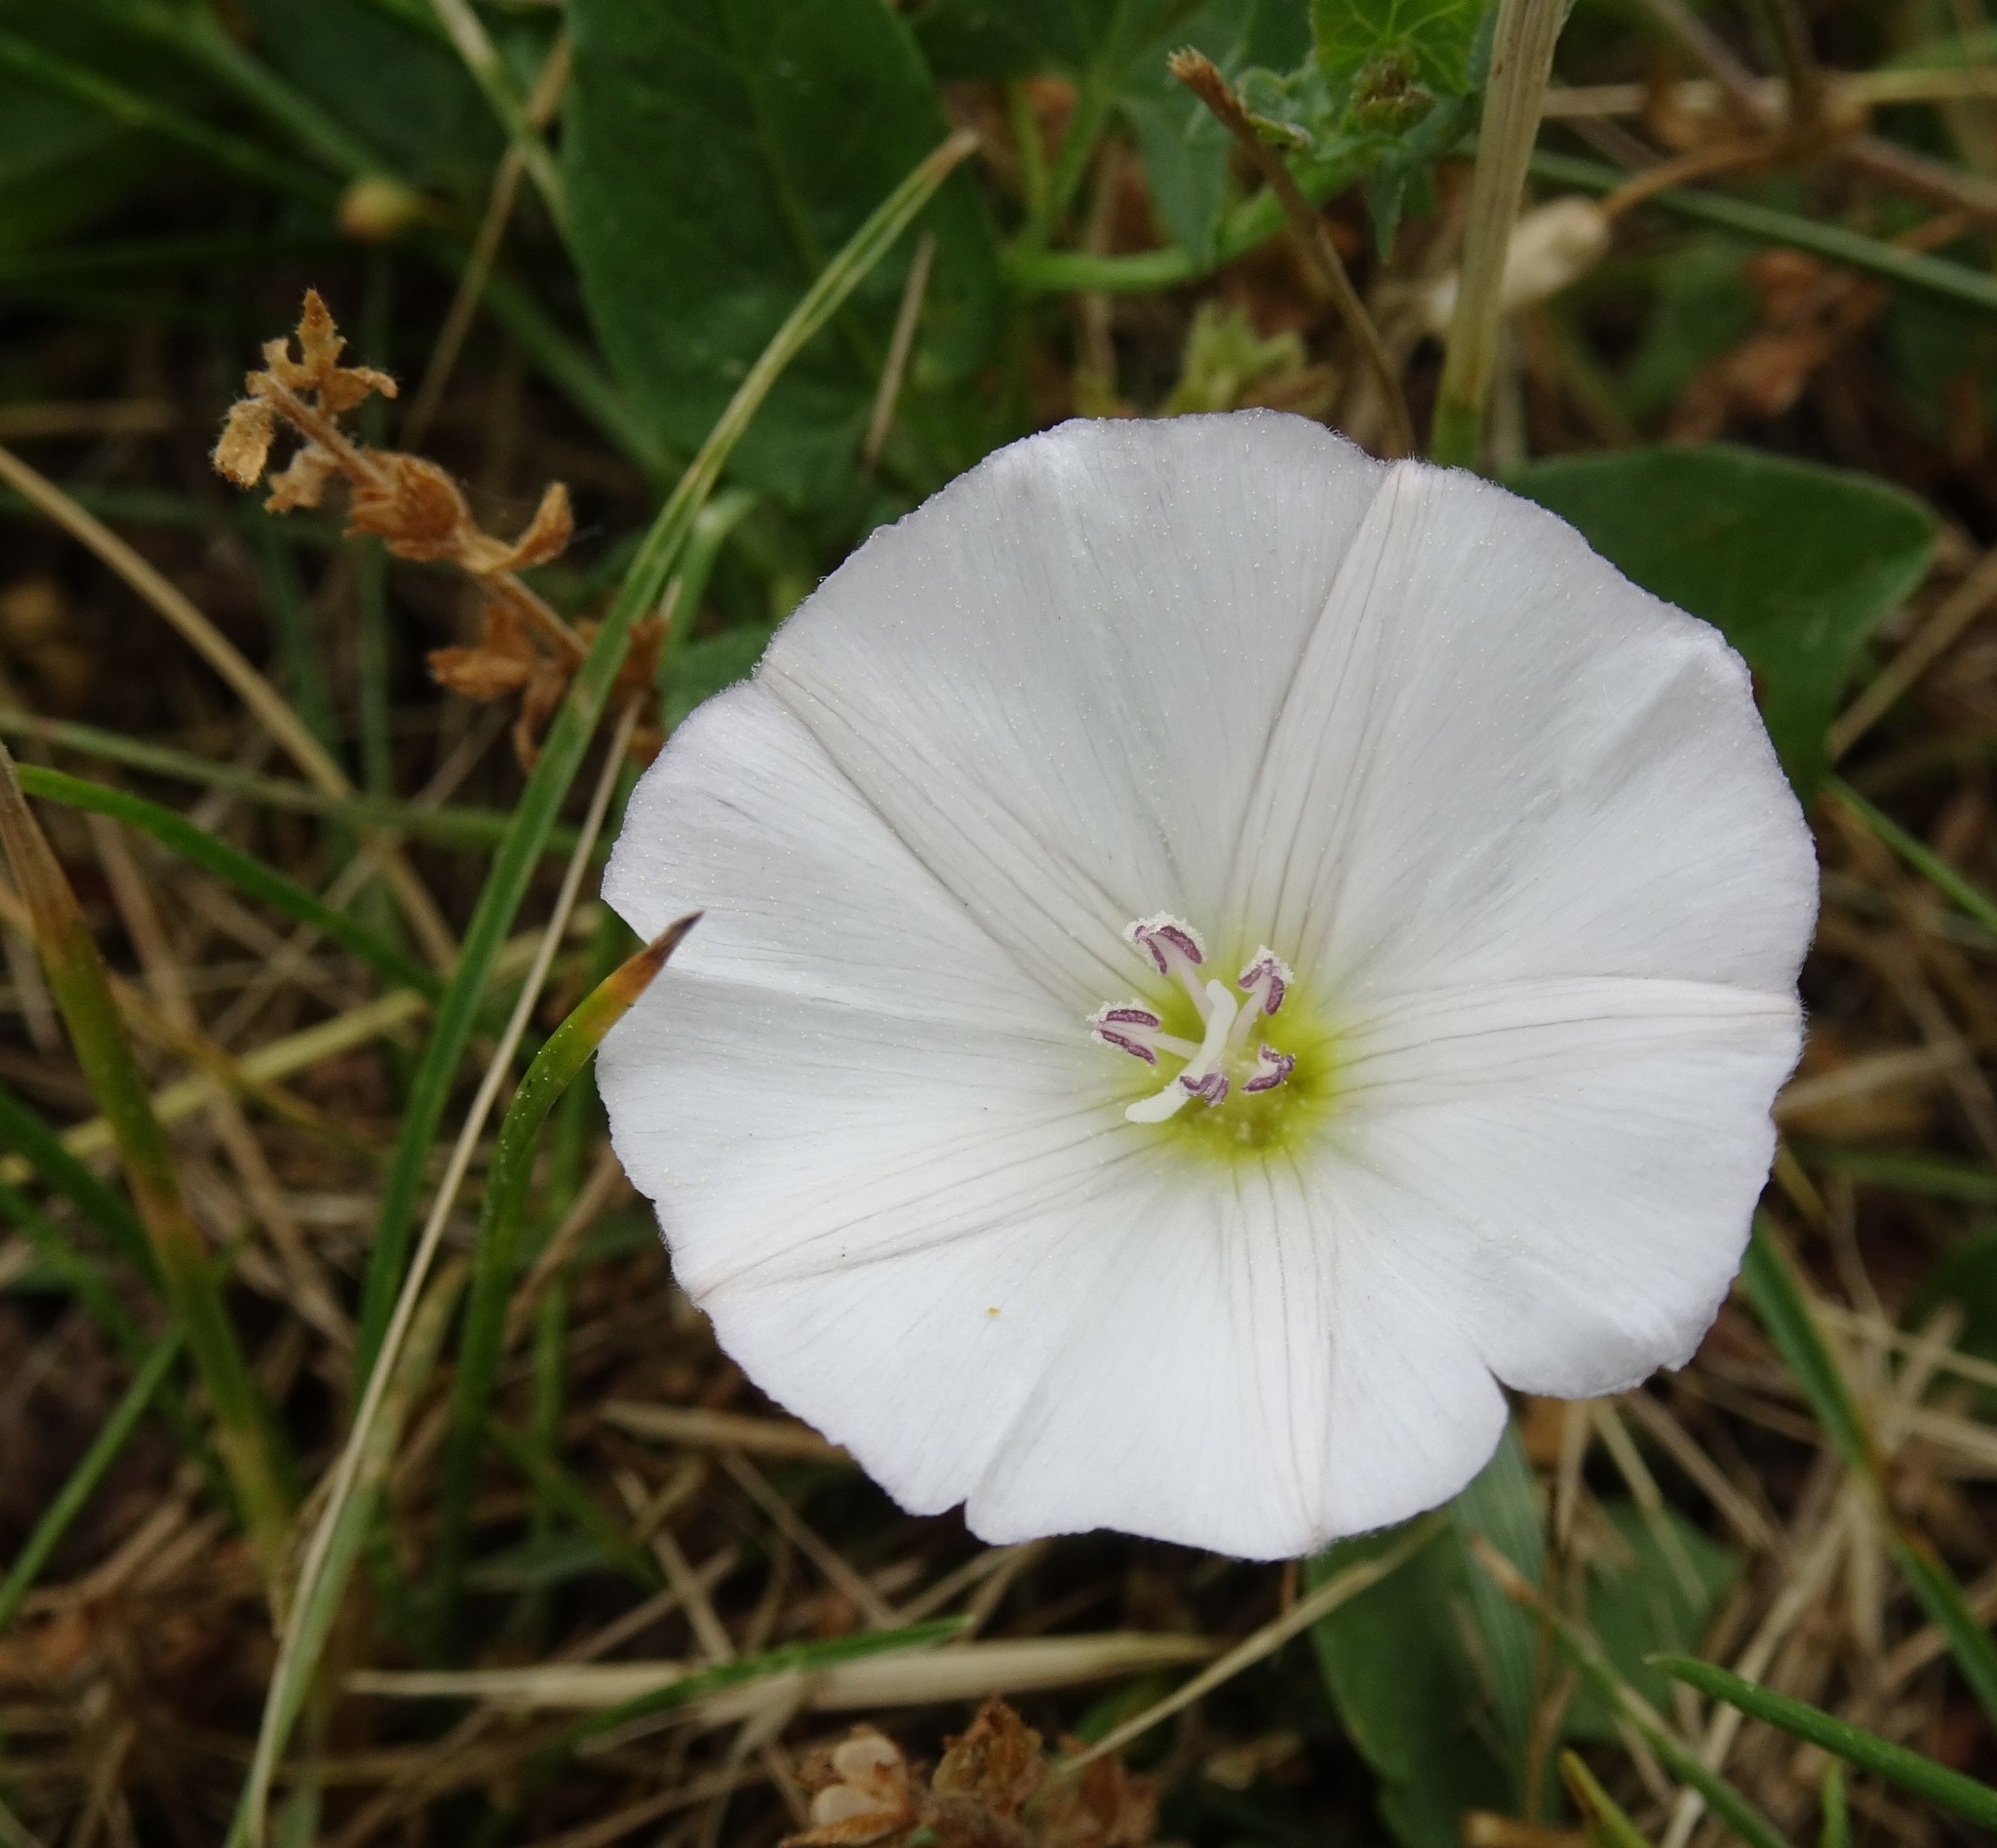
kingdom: Plantae
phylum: Tracheophyta
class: Magnoliopsida
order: Solanales
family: Convolvulaceae
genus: Convolvulus
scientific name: Convolvulus arvensis
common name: Field bindweed
